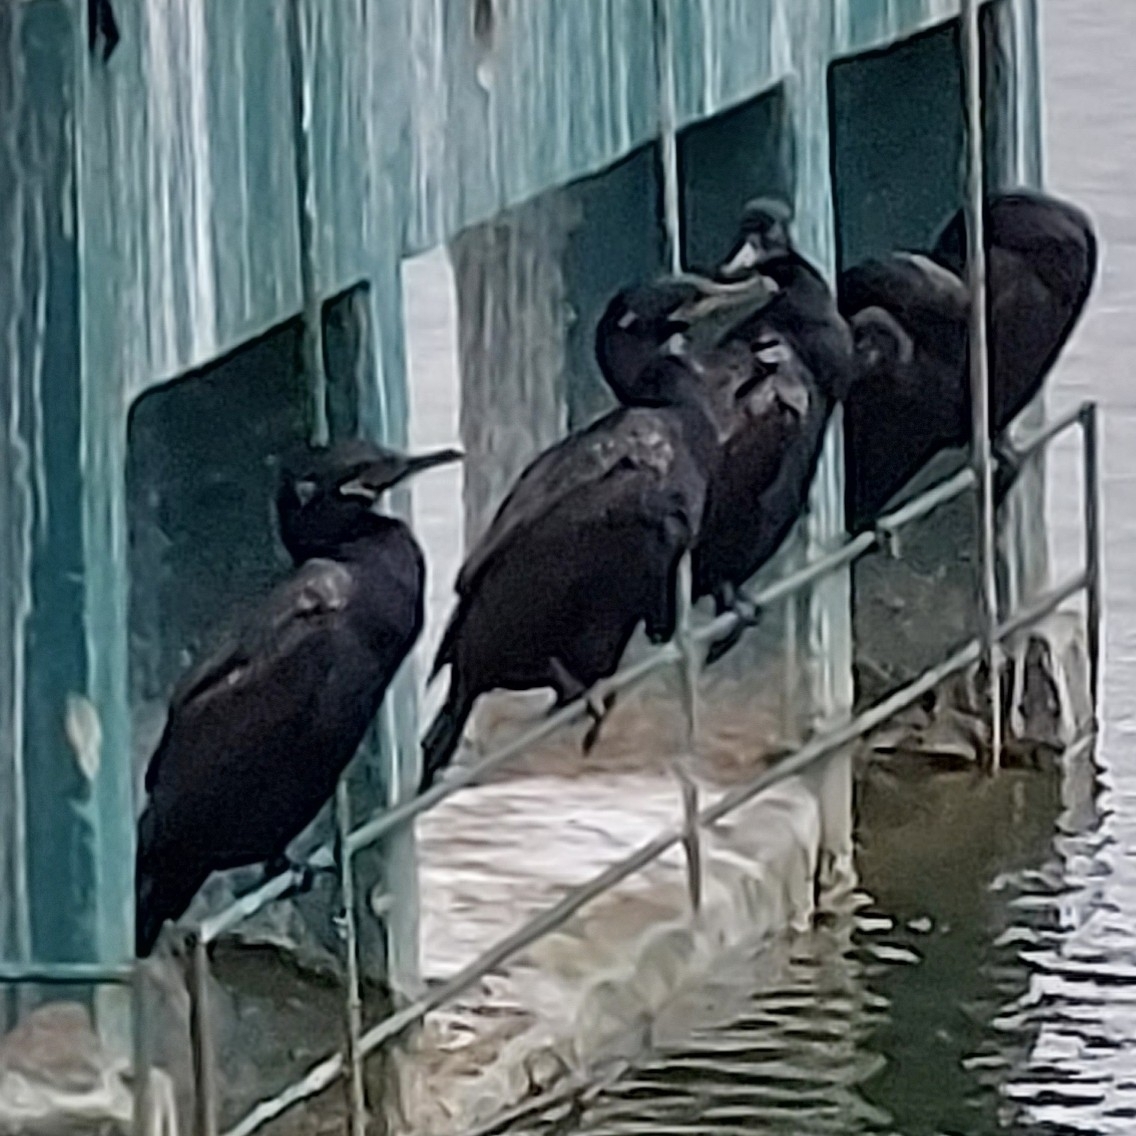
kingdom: Animalia
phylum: Chordata
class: Aves
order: Suliformes
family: Phalacrocoracidae
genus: Phalacrocorax
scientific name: Phalacrocorax brasilianus
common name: Neotropic cormorant
